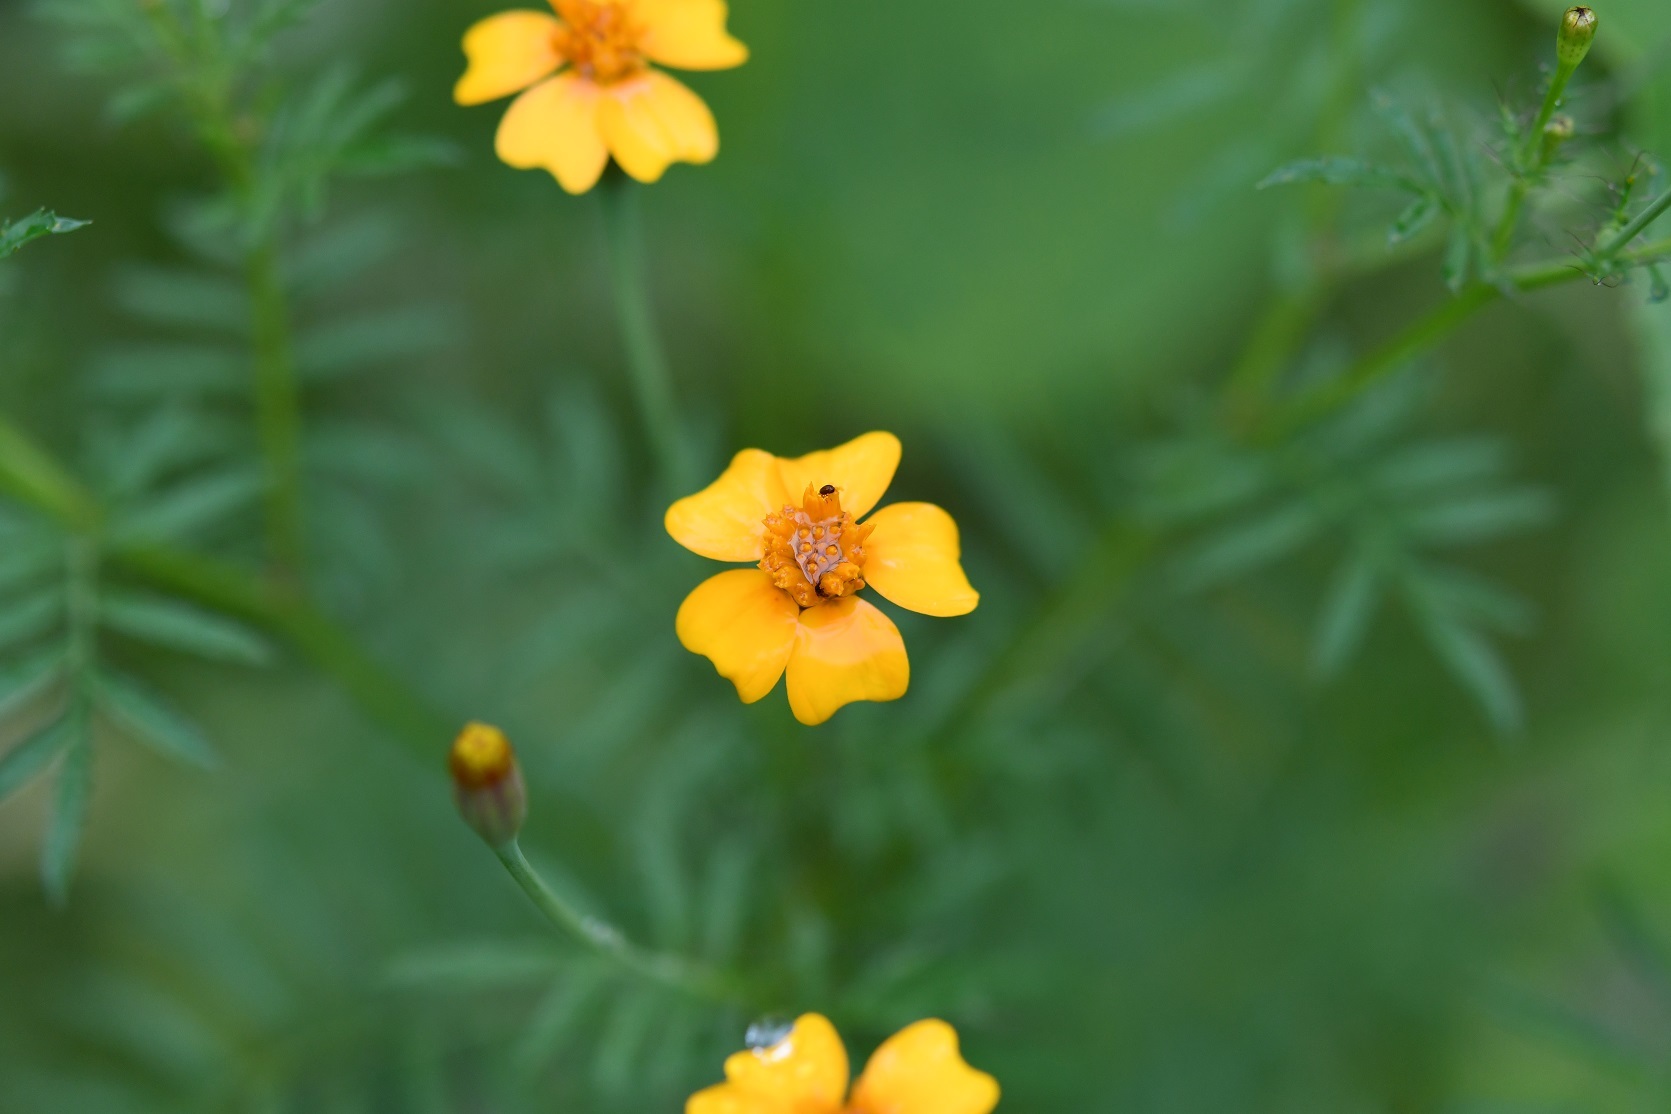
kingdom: Plantae
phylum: Tracheophyta
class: Magnoliopsida
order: Asterales
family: Asteraceae
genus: Tagetes
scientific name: Tagetes tenuifolia
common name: Signet marigold
